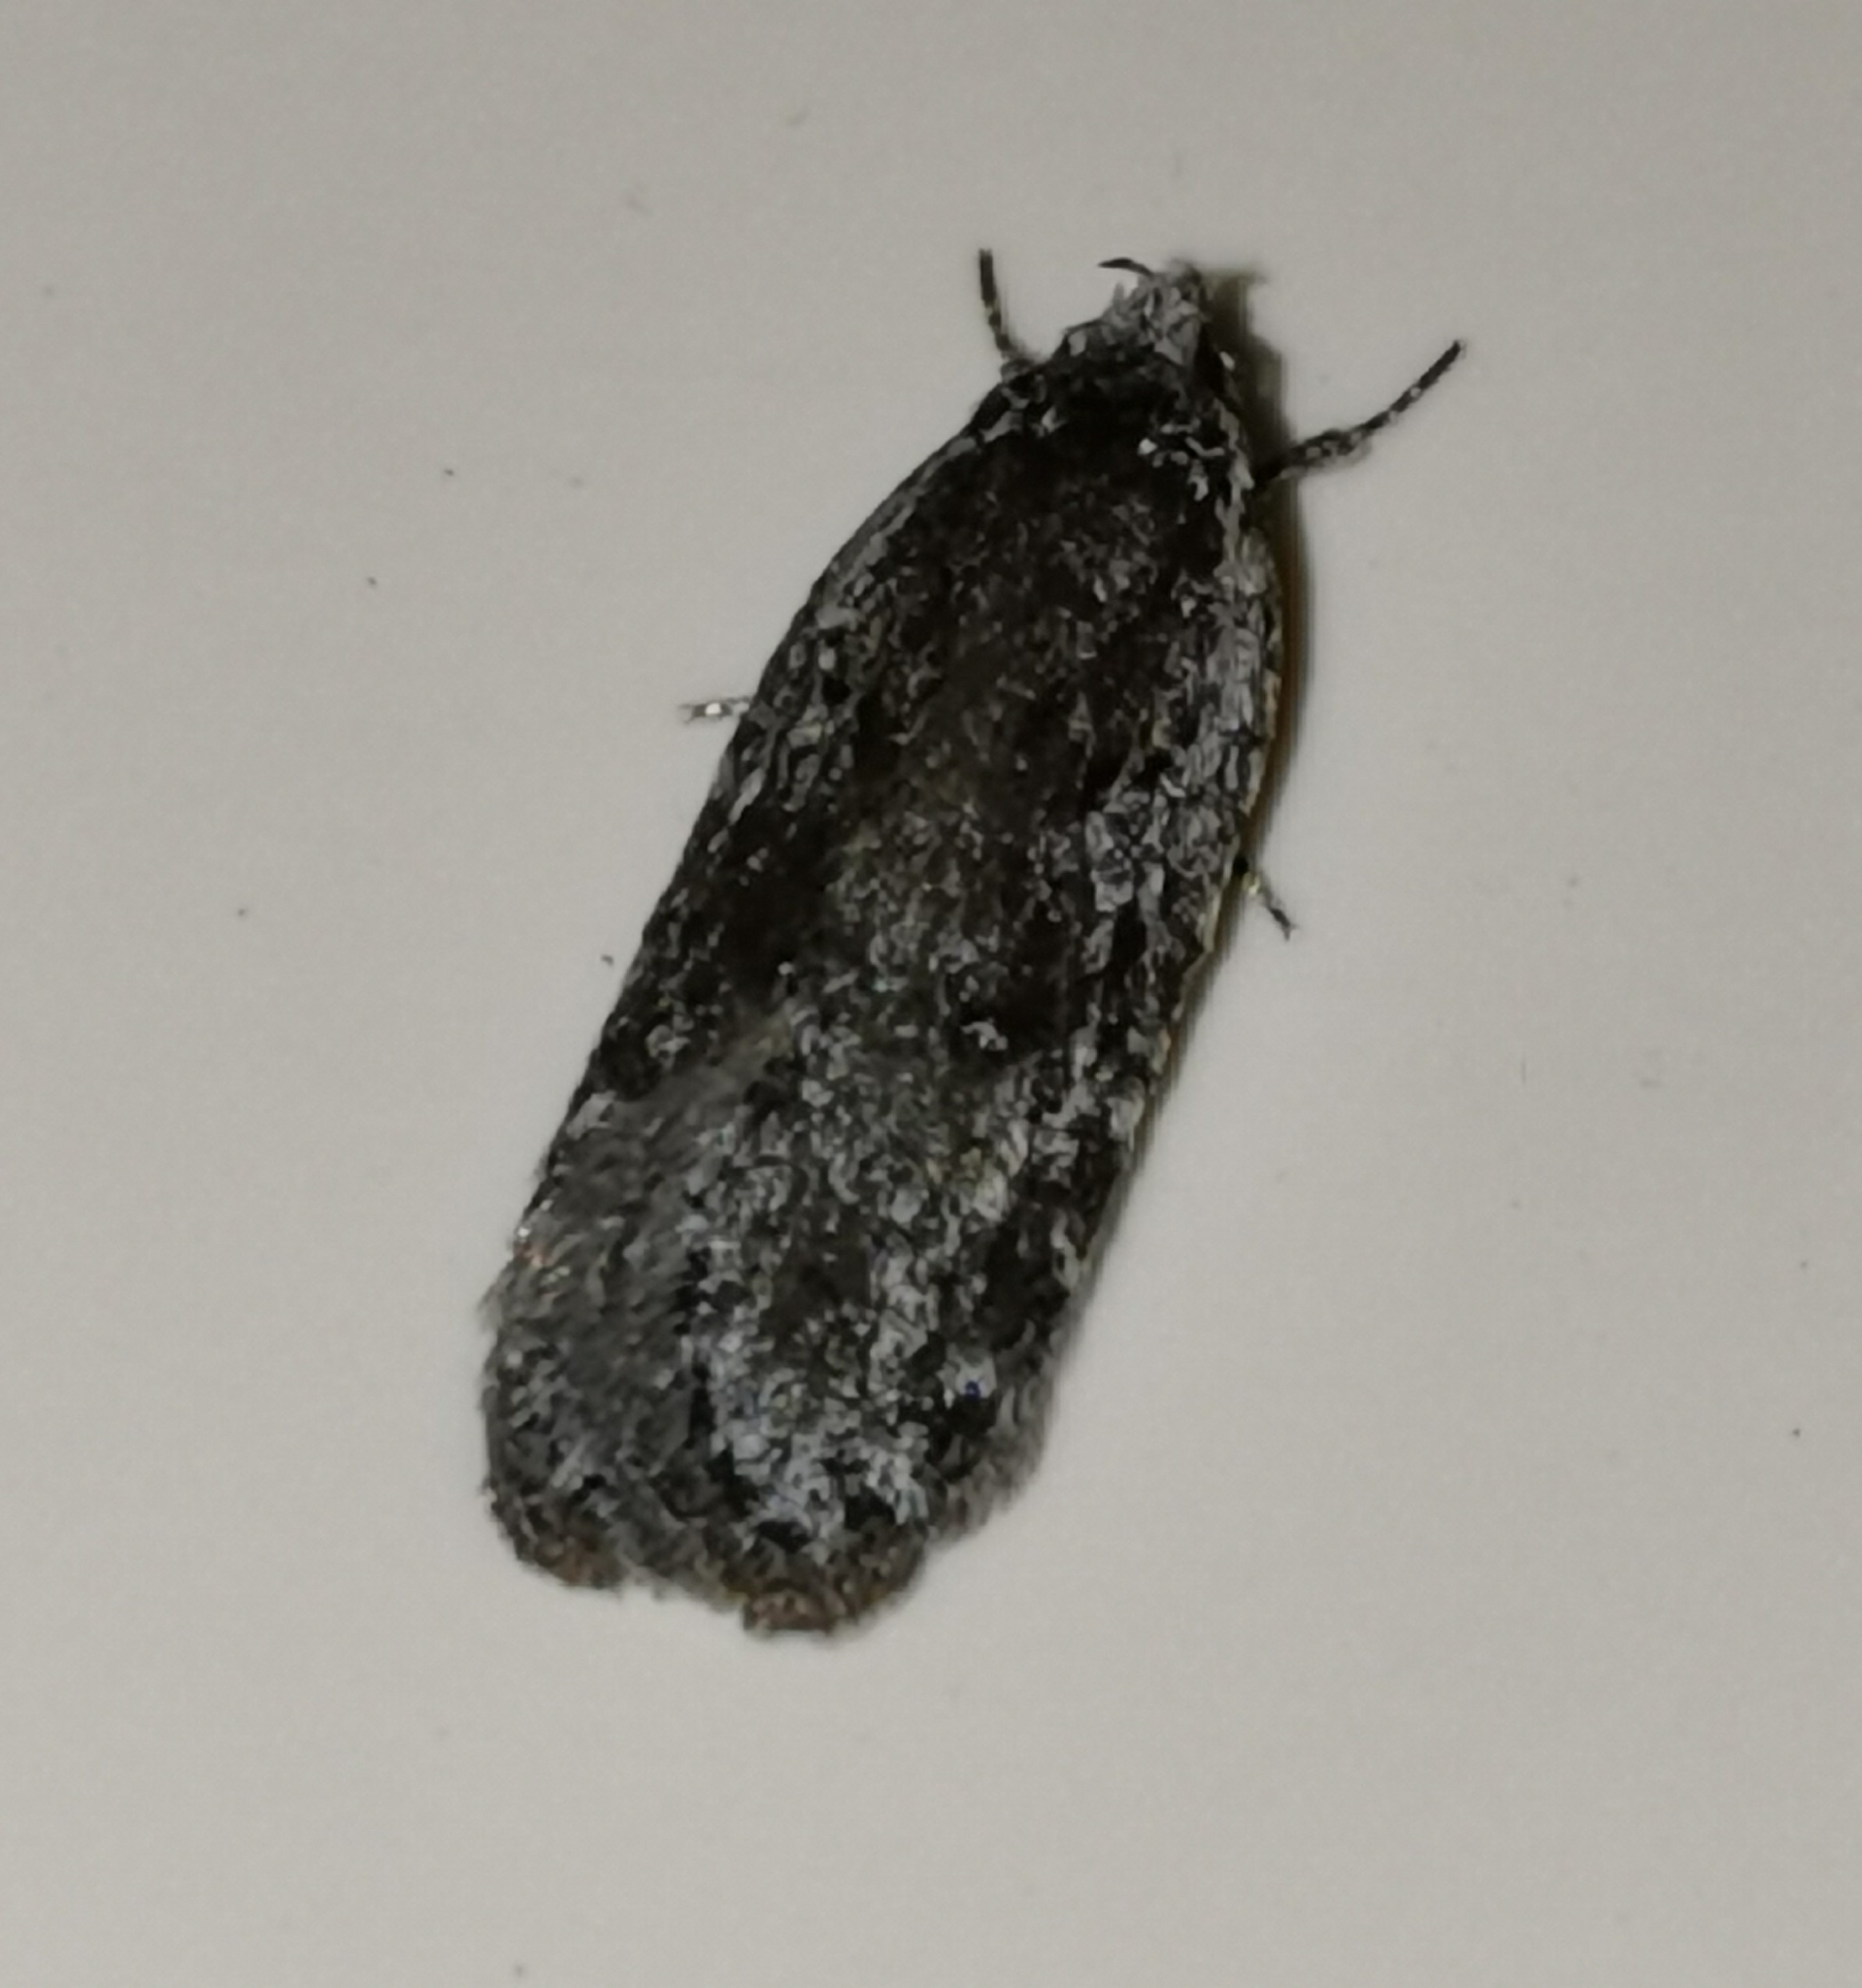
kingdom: Animalia
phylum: Arthropoda
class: Insecta
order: Lepidoptera
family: Depressariidae
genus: Exaeretia
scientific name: Exaeretia ciniflonella
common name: Scotch flat-body
